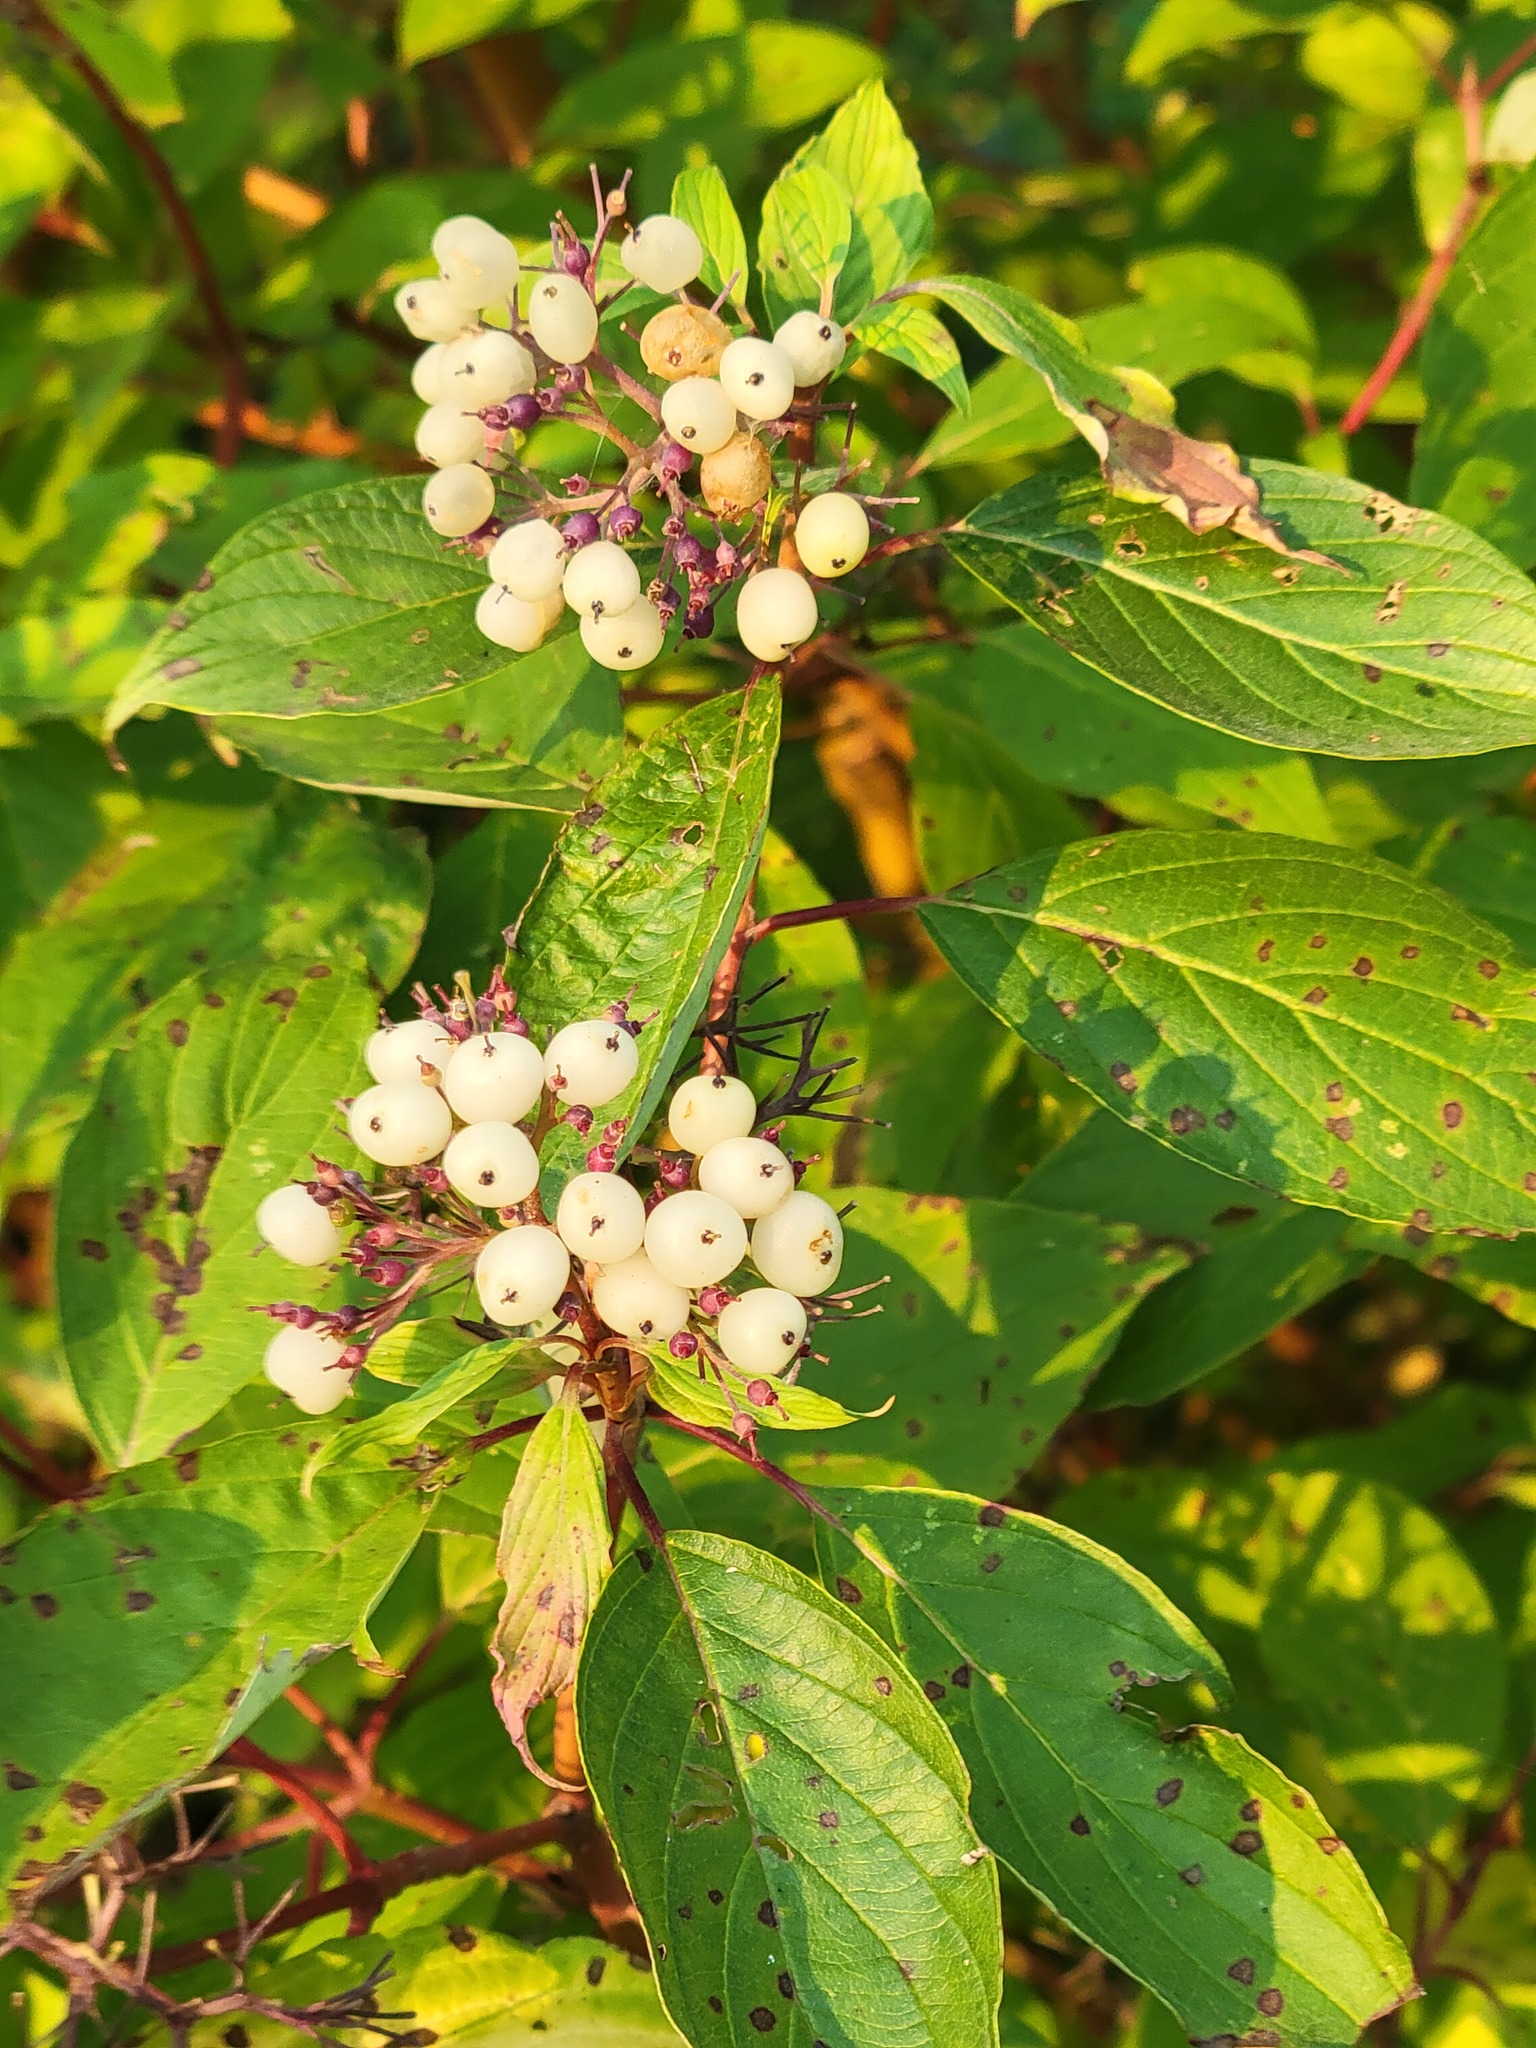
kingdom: Plantae
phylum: Tracheophyta
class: Magnoliopsida
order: Cornales
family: Cornaceae
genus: Cornus
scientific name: Cornus sericea
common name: Red-osier dogwood
